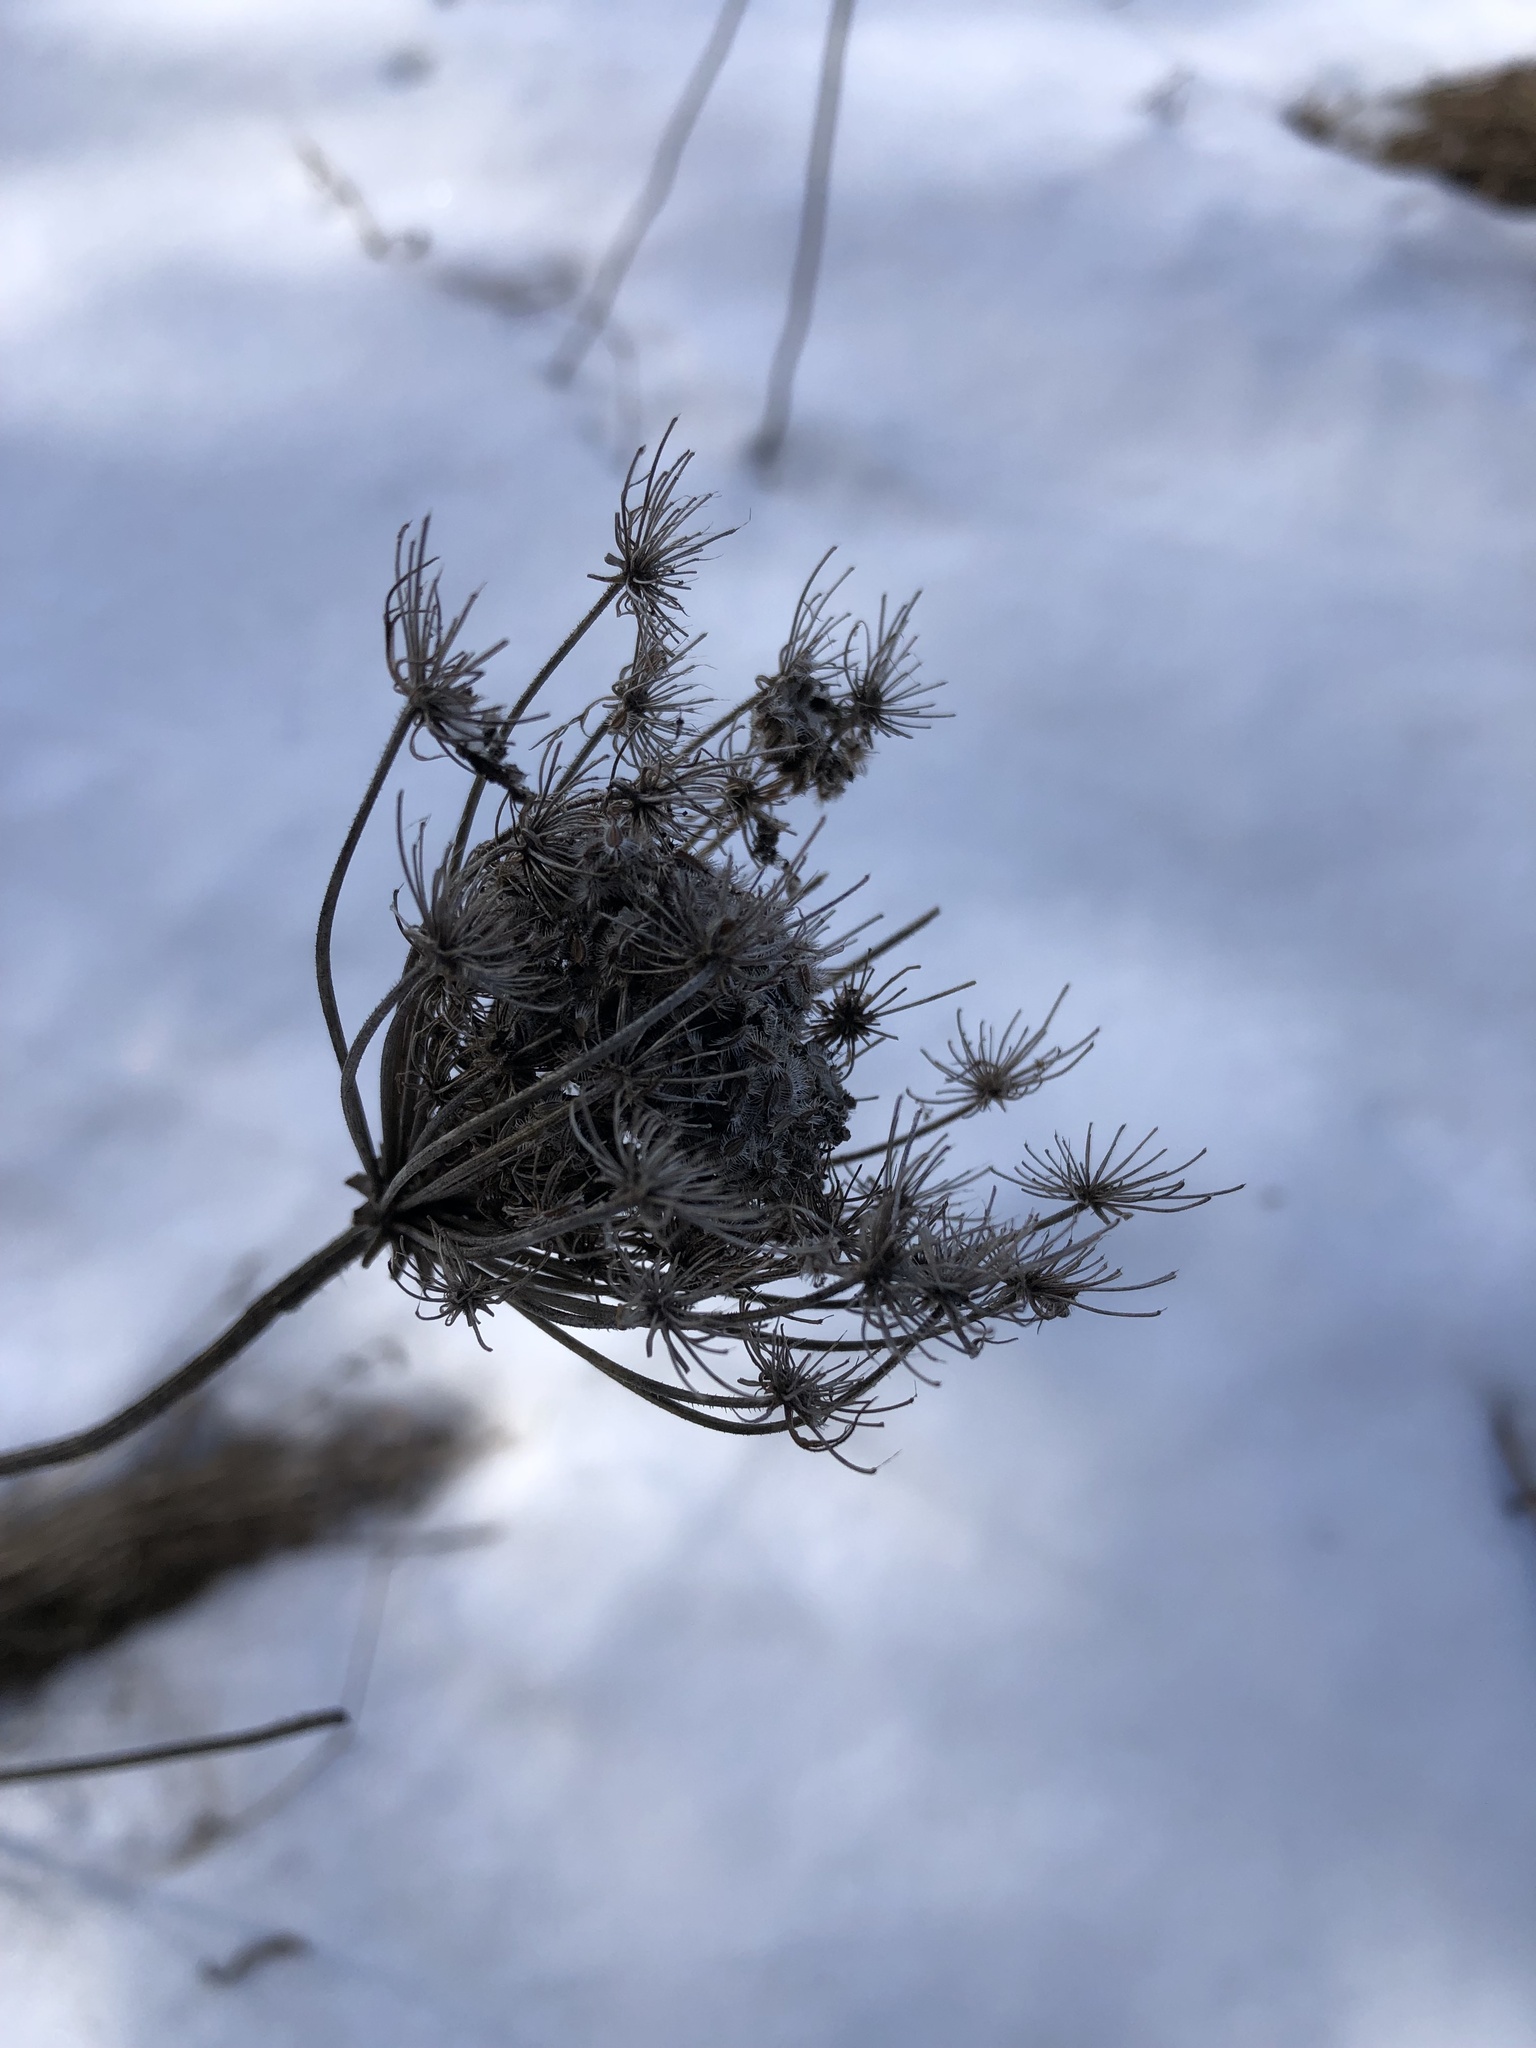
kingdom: Plantae
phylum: Tracheophyta
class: Magnoliopsida
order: Apiales
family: Apiaceae
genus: Daucus
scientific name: Daucus carota
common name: Wild carrot
